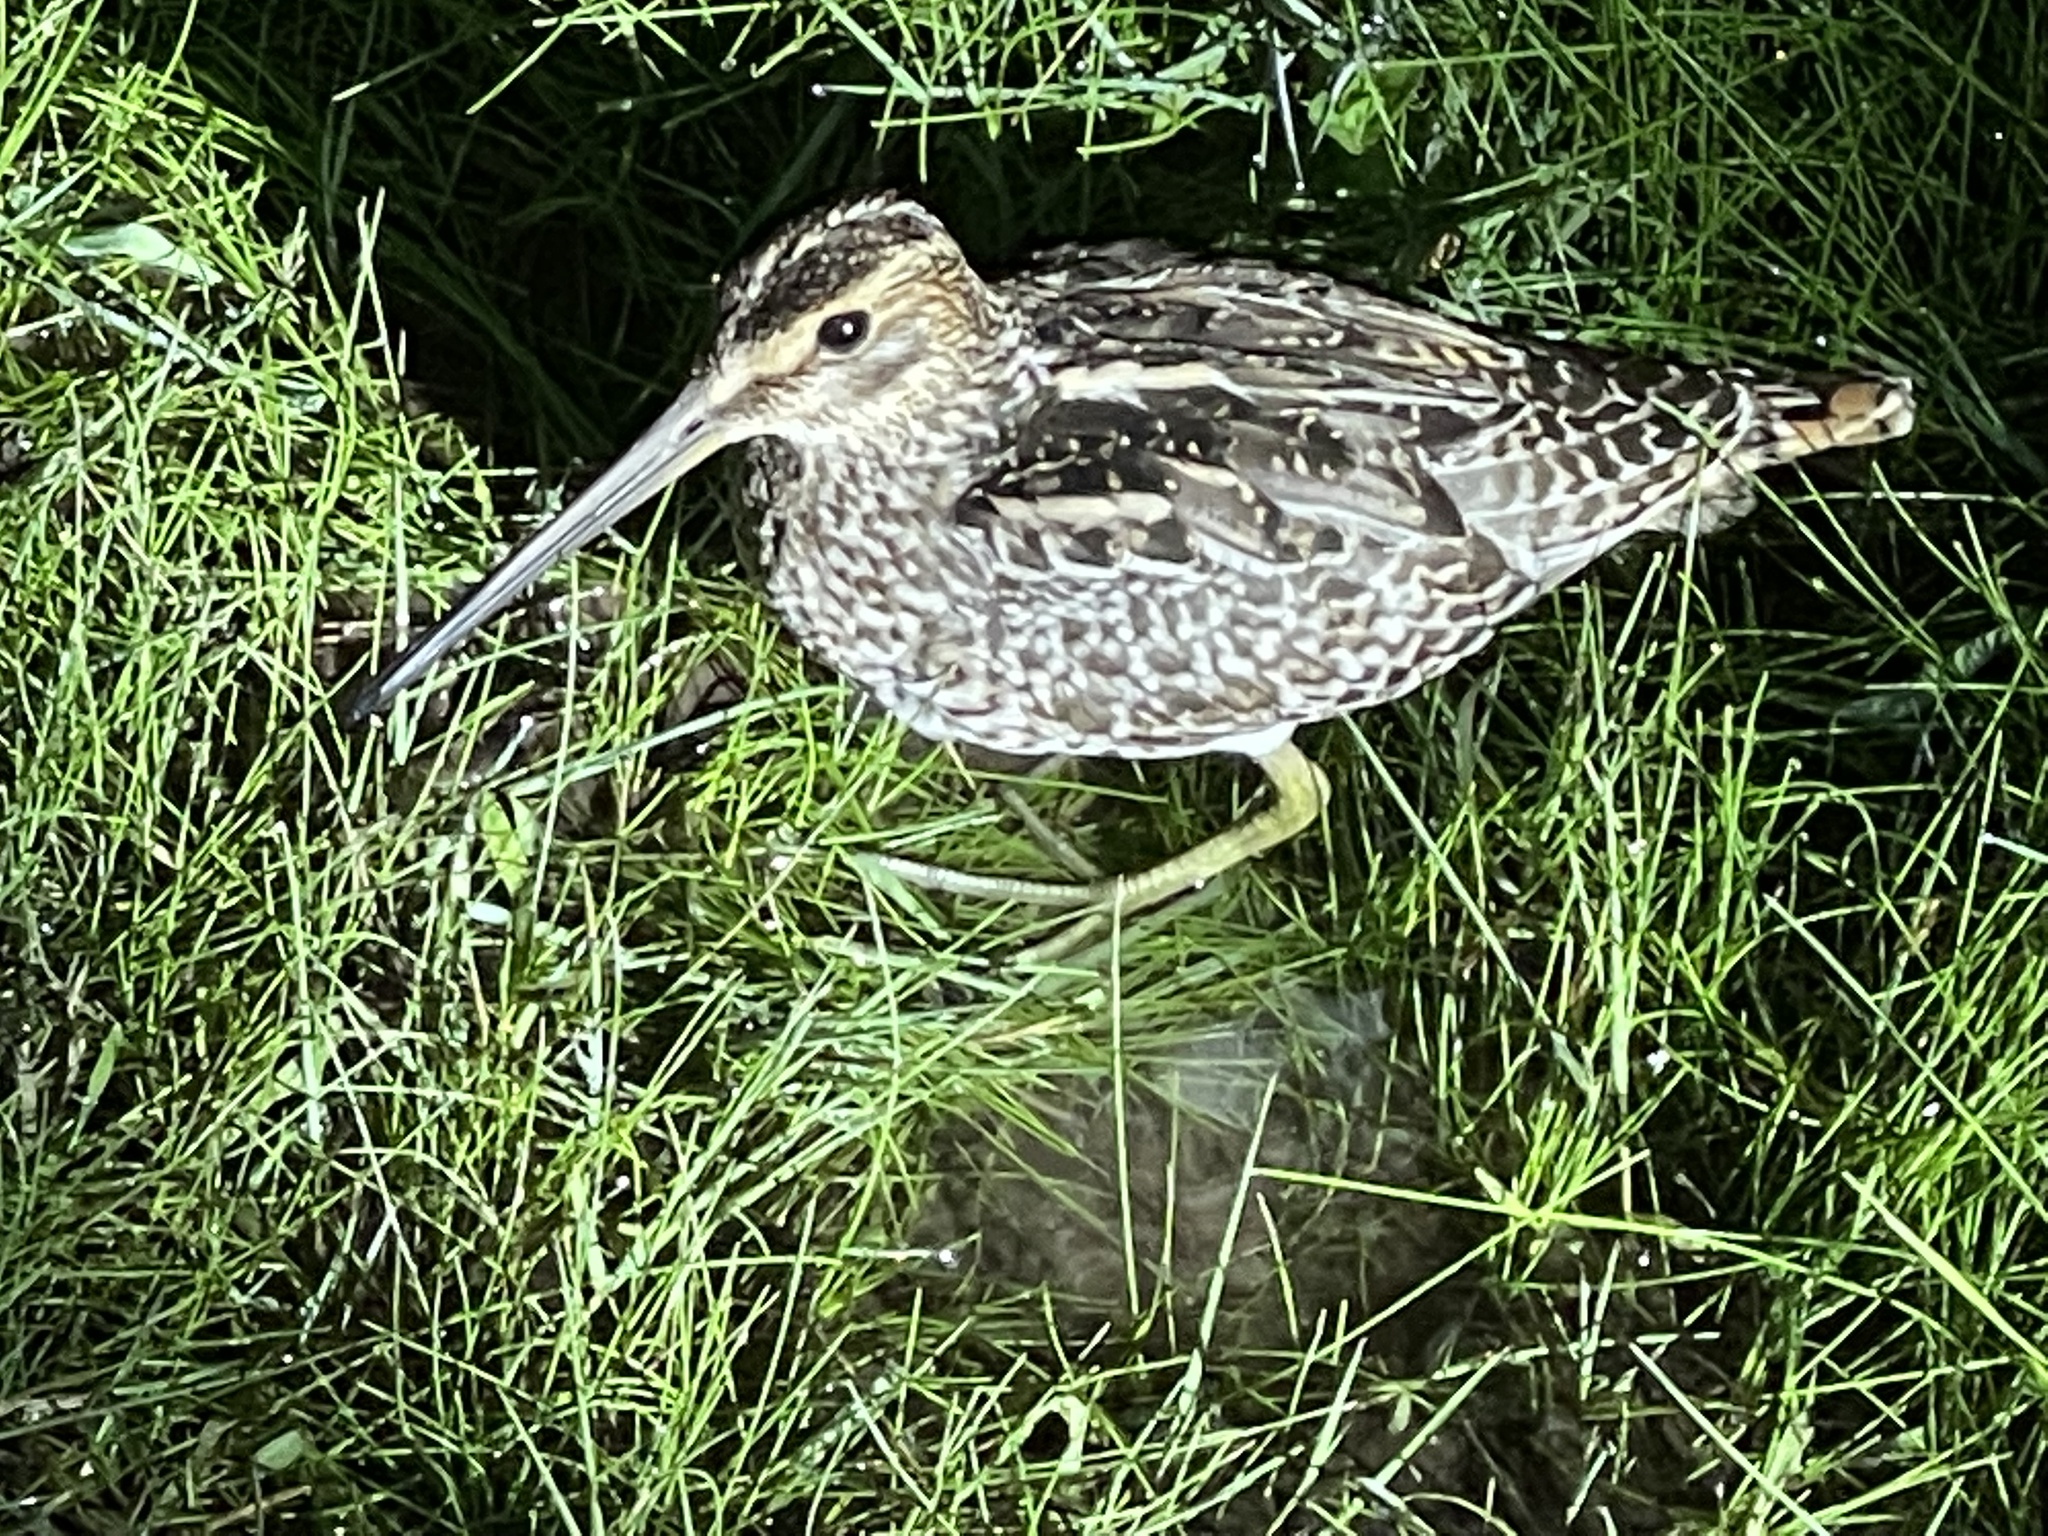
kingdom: Animalia
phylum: Chordata
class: Aves
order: Charadriiformes
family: Scolopacidae
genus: Gallinago
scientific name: Gallinago paraguaiae
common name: South american snipe
